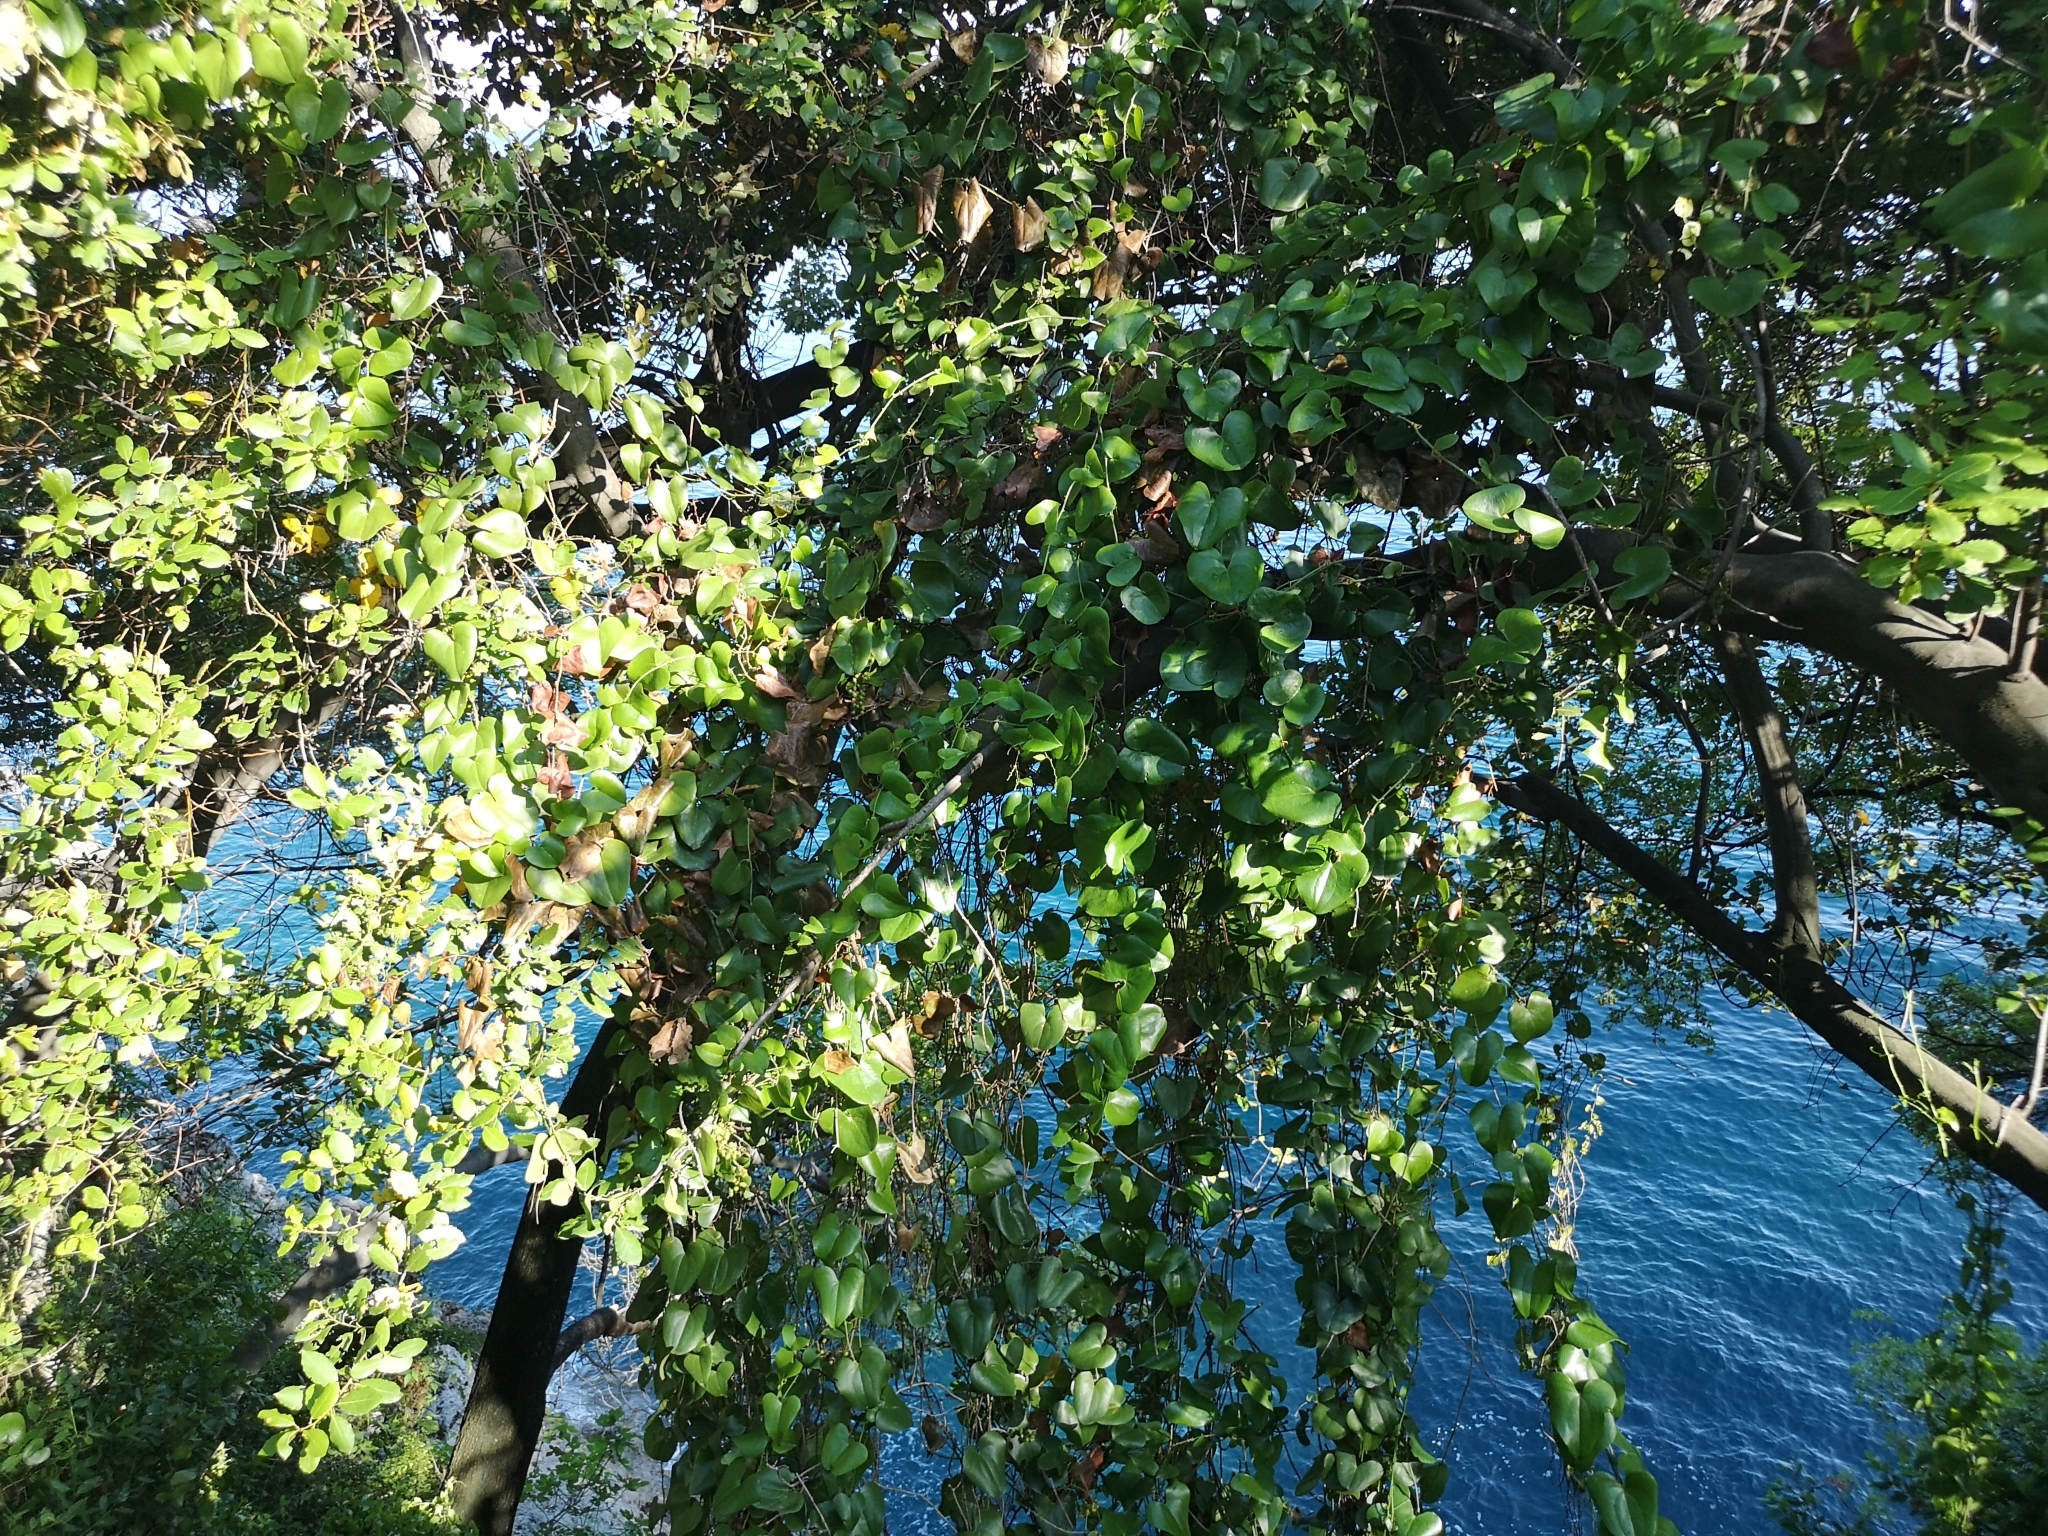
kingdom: Plantae
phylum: Tracheophyta
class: Liliopsida
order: Liliales
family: Smilacaceae
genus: Smilax
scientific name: Smilax aspera
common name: Common smilax
